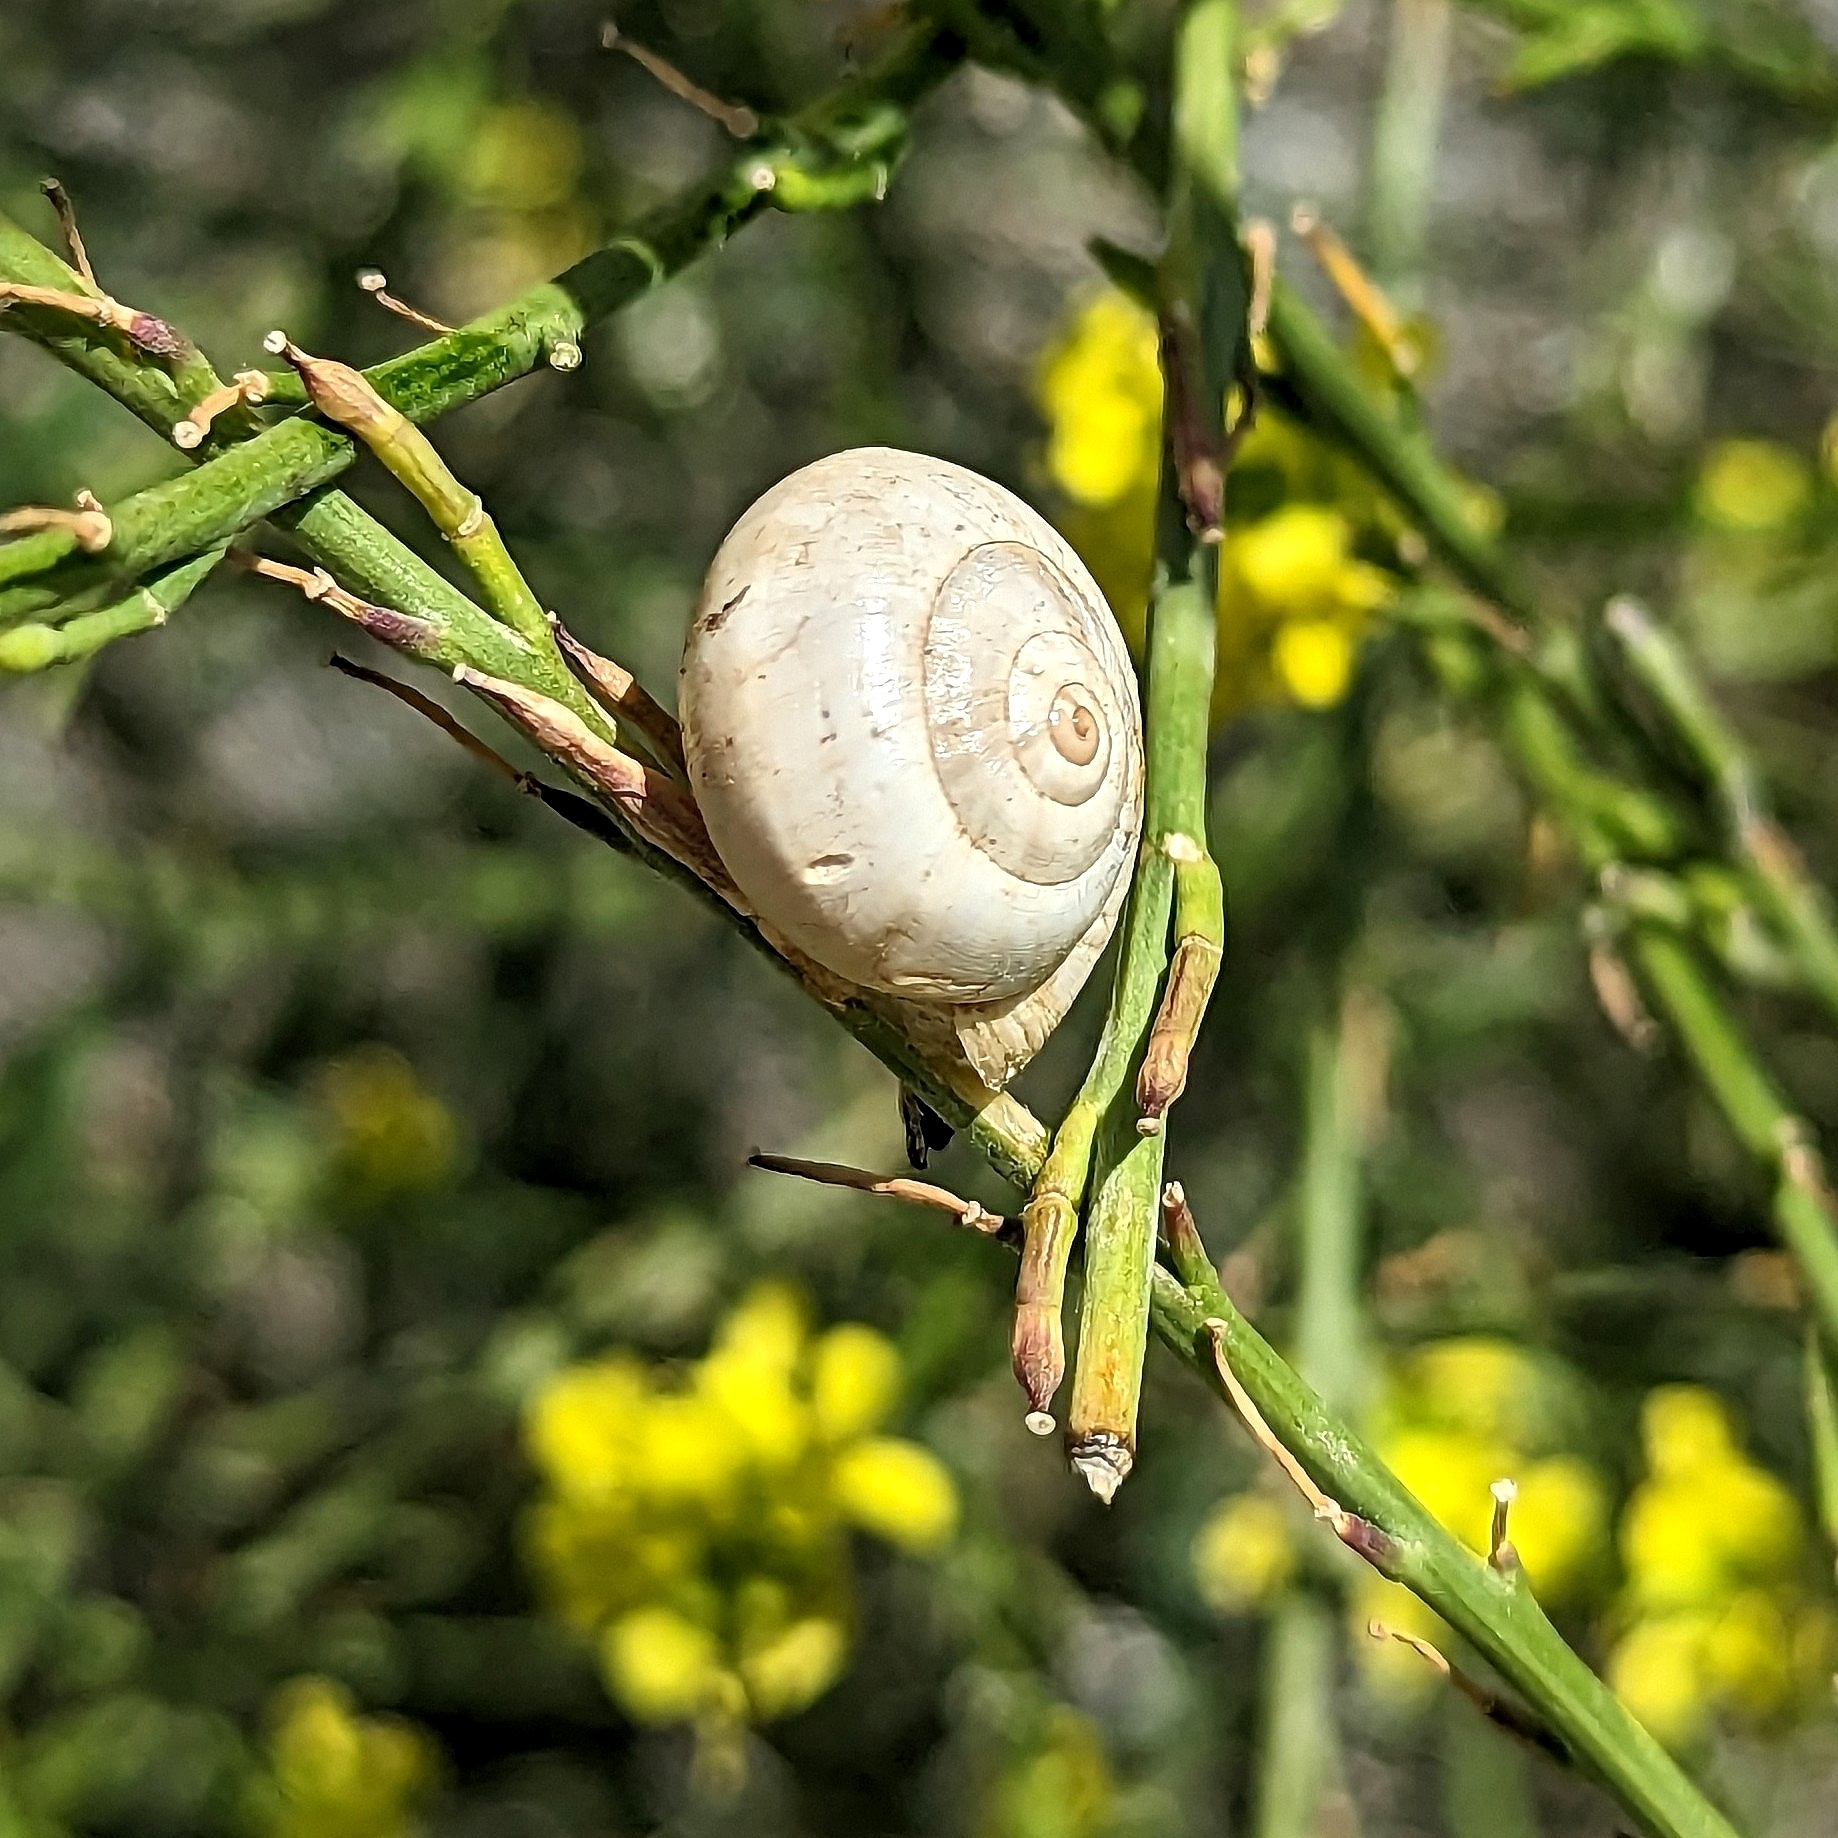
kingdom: Animalia
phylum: Mollusca
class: Gastropoda
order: Stylommatophora
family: Helicidae
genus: Theba
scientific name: Theba pisana
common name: White snail
